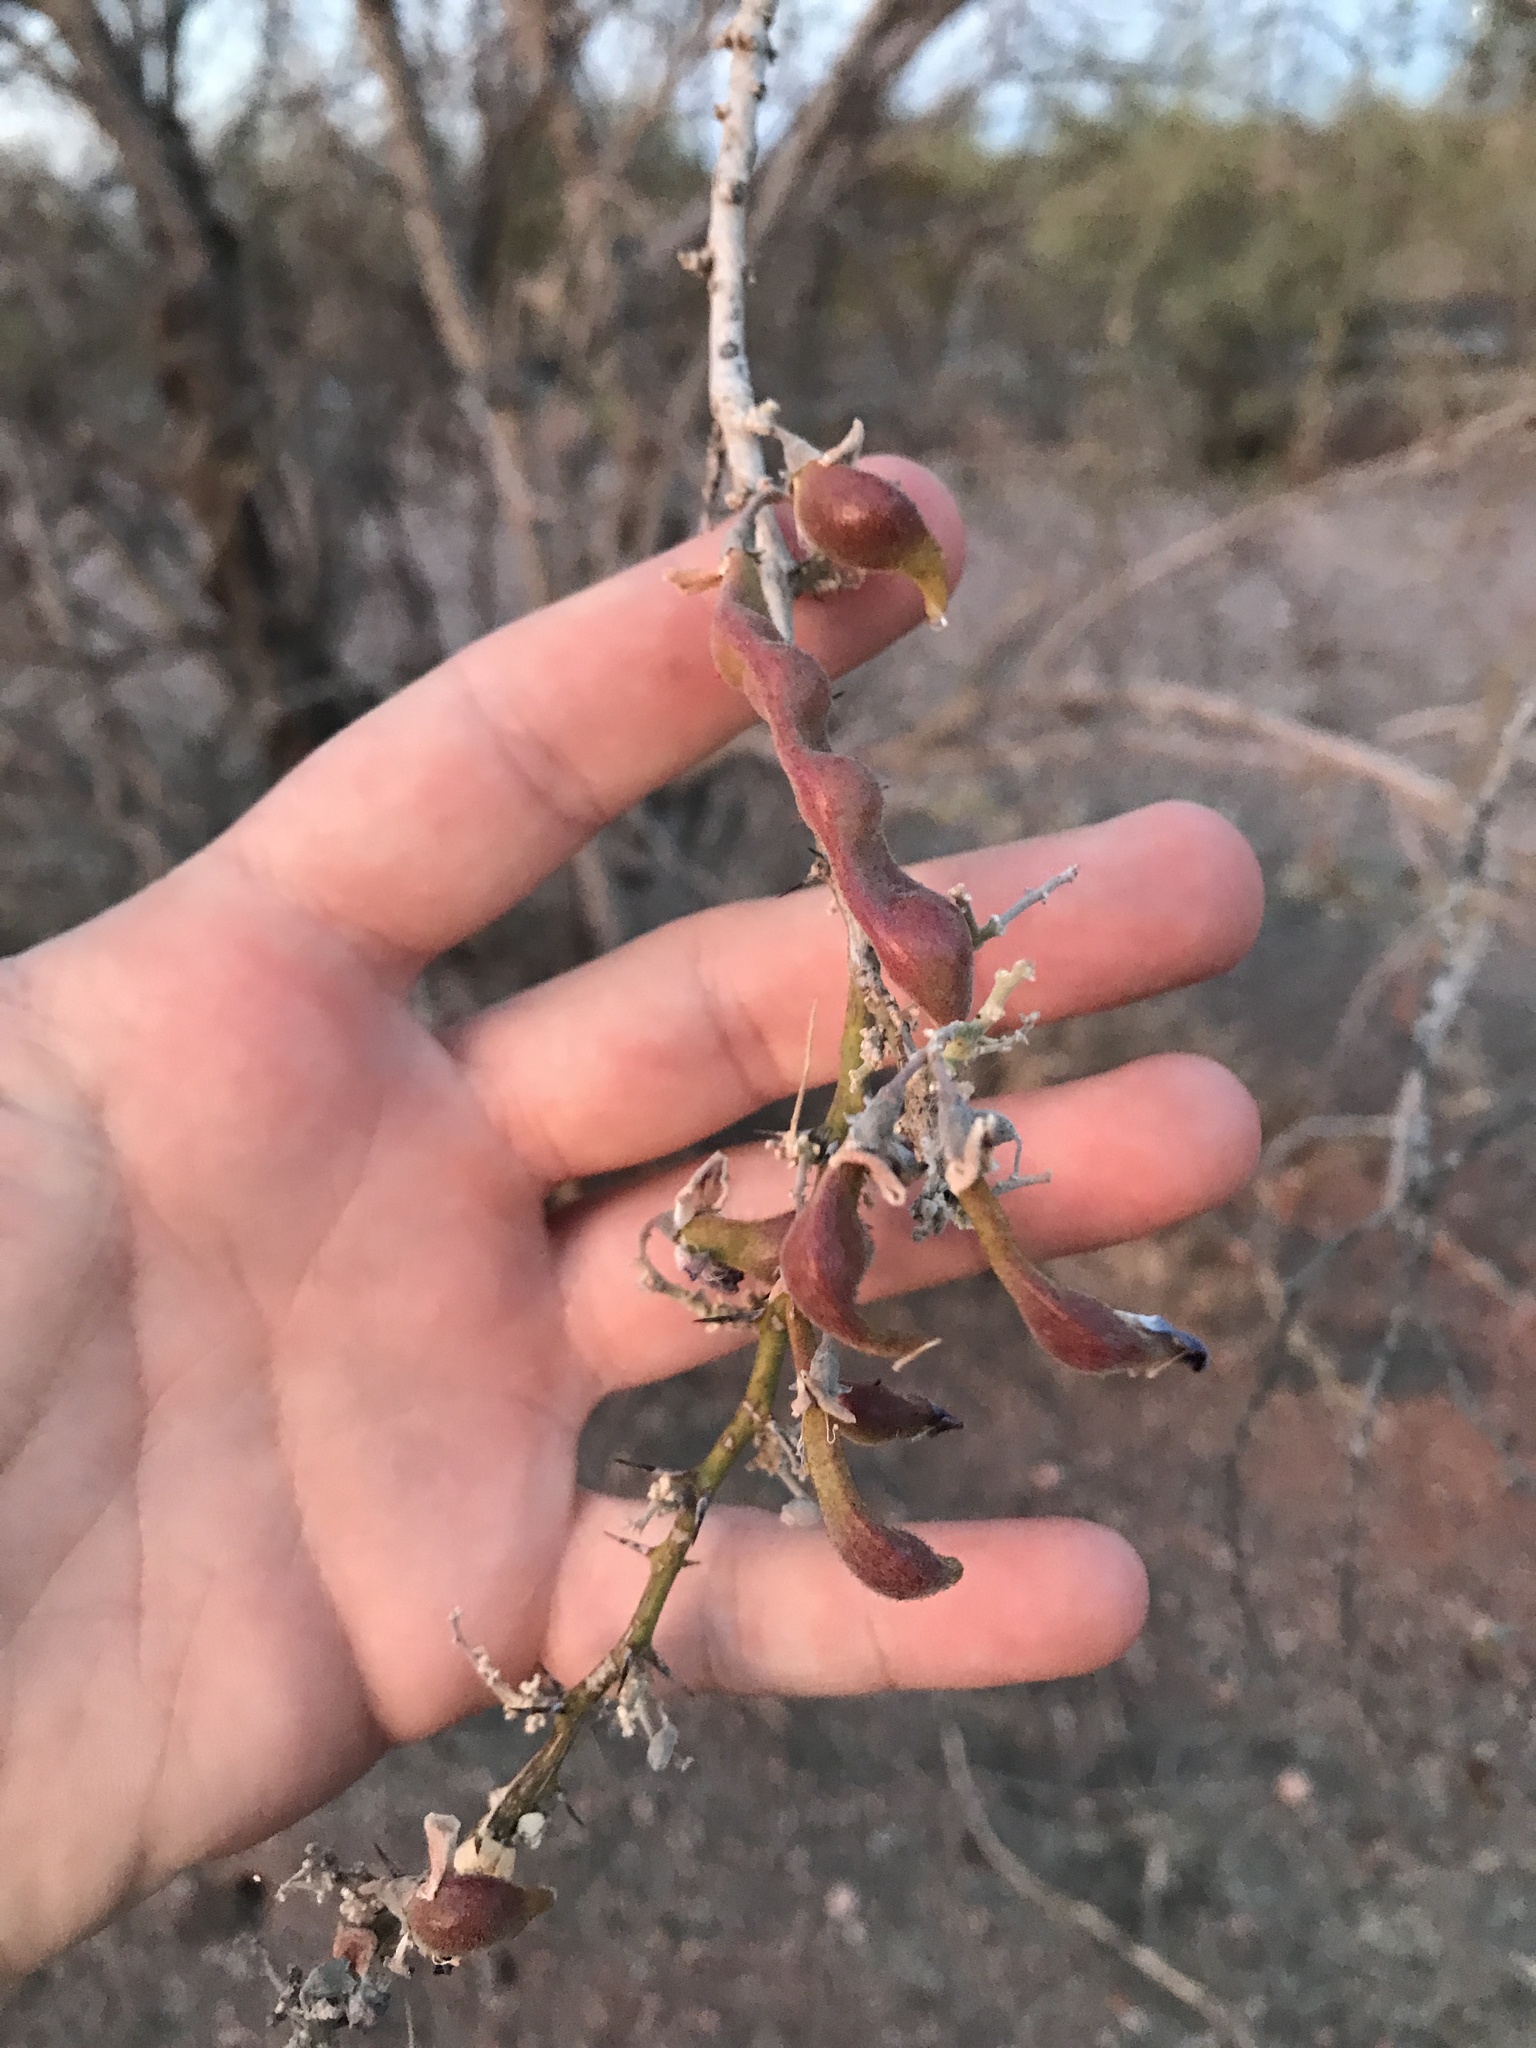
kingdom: Plantae
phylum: Tracheophyta
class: Magnoliopsida
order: Fabales
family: Fabaceae
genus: Olneya
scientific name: Olneya tesota
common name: Desert ironwood
